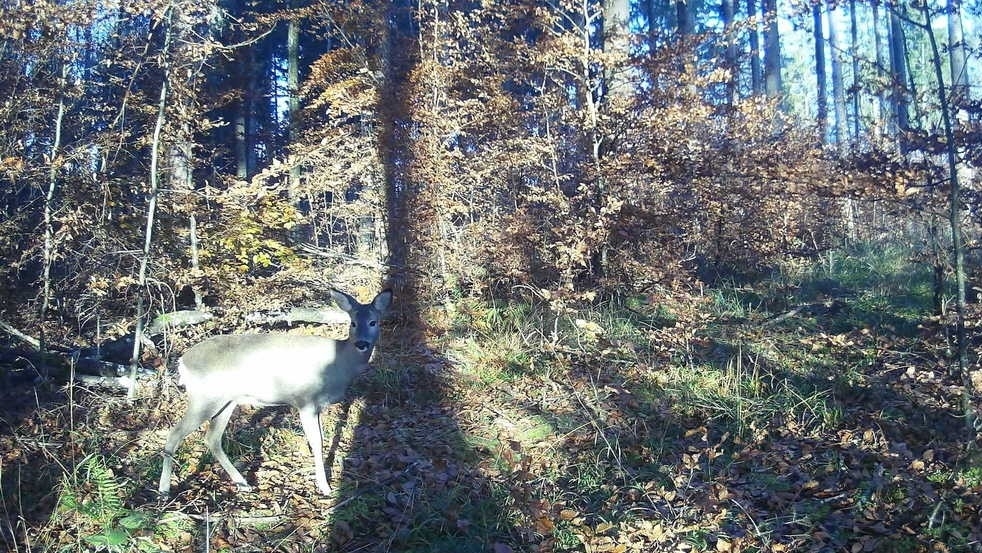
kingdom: Animalia
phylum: Chordata
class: Mammalia
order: Artiodactyla
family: Cervidae
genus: Capreolus
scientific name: Capreolus capreolus
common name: Western roe deer
